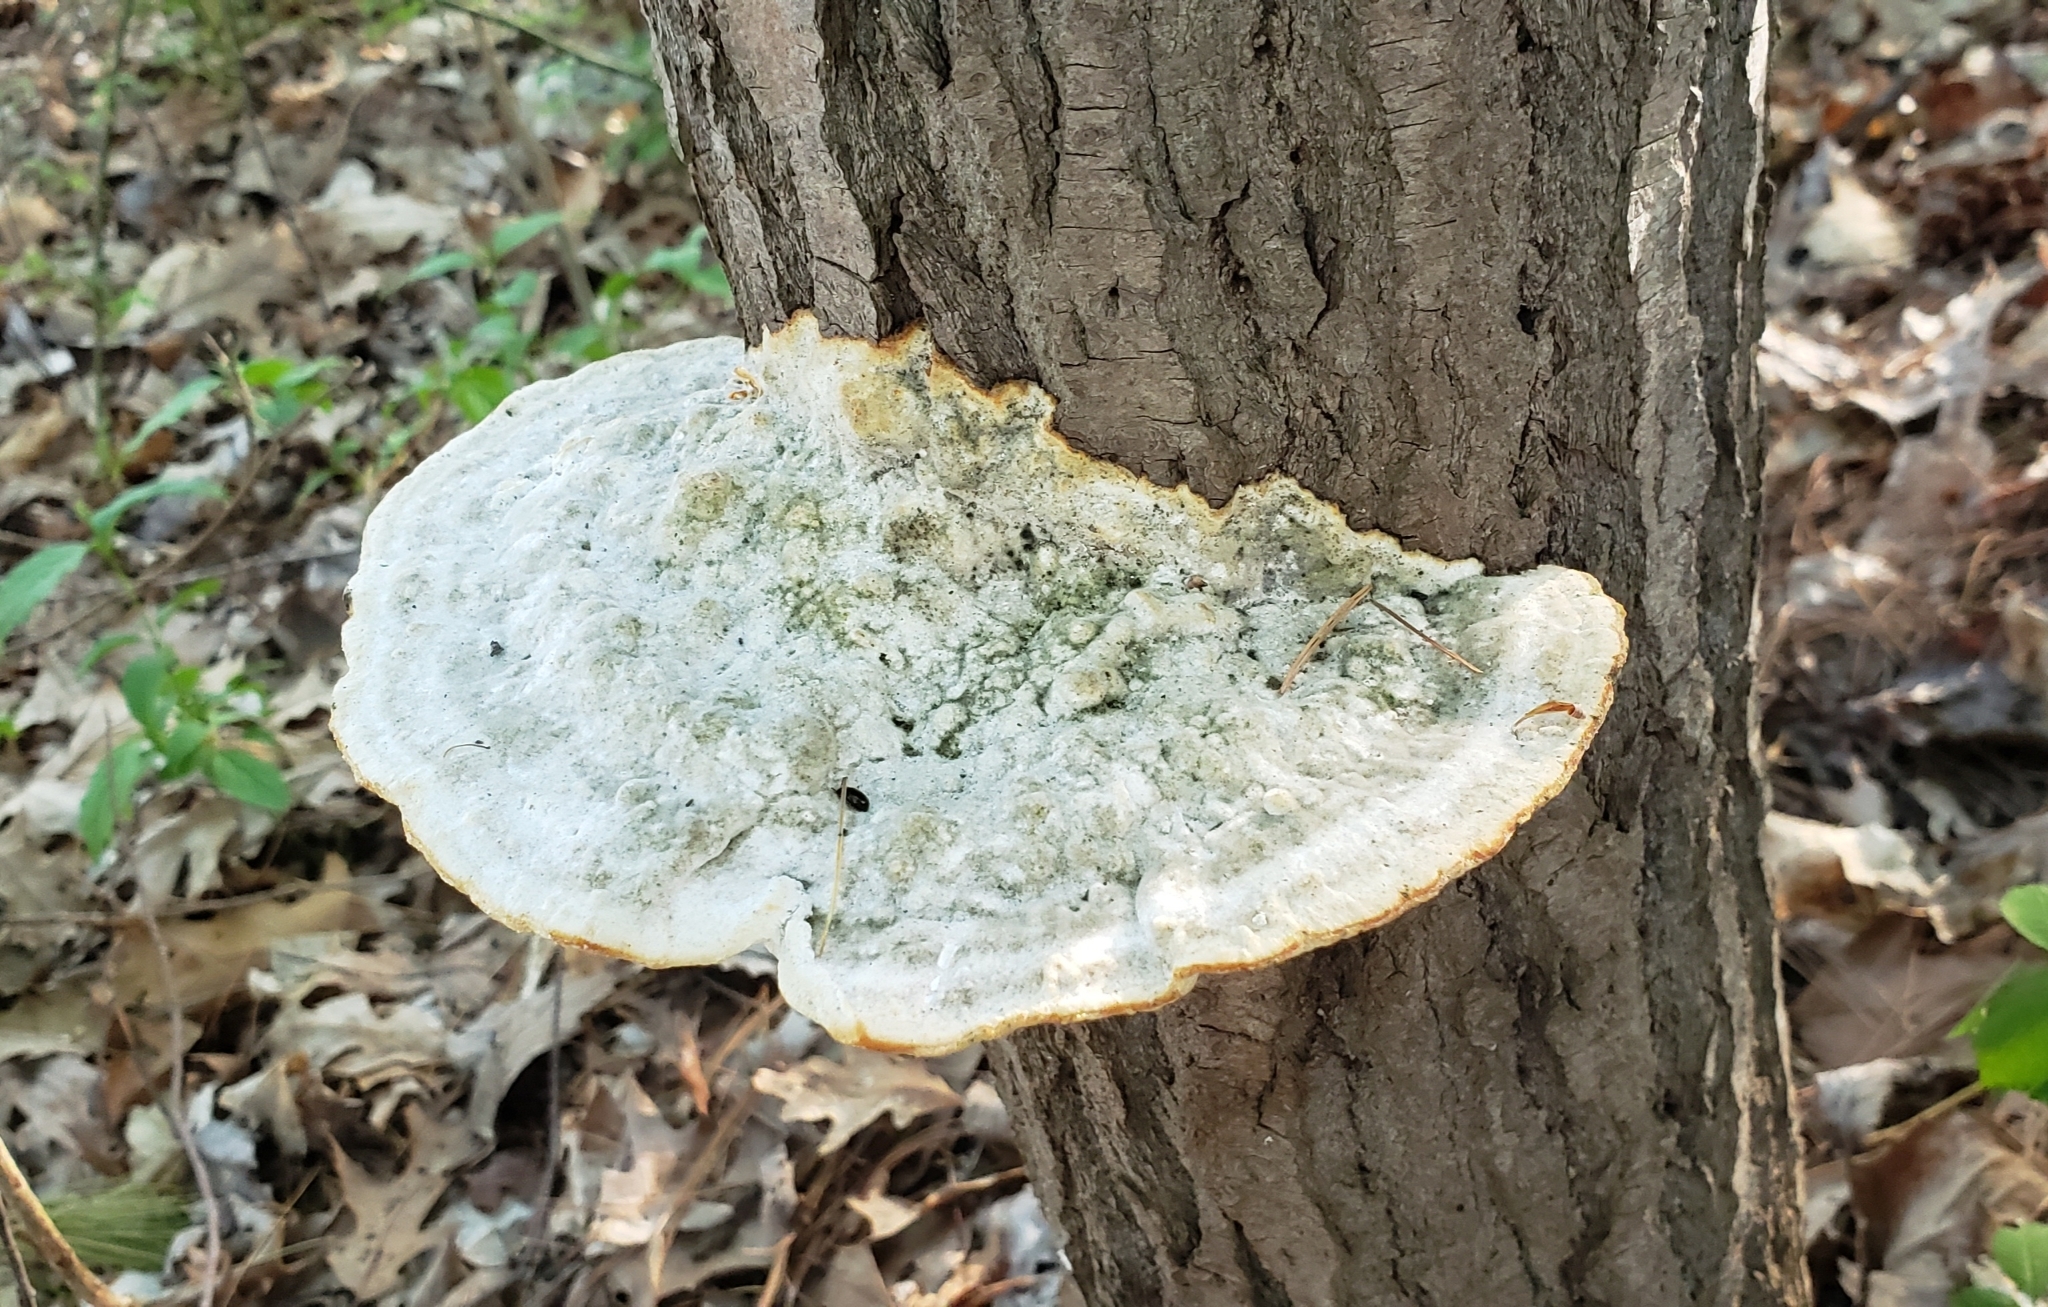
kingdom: Fungi
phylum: Basidiomycota
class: Agaricomycetes
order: Polyporales
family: Polyporaceae
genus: Trametes
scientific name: Trametes gibbosa
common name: Lumpy bracket
